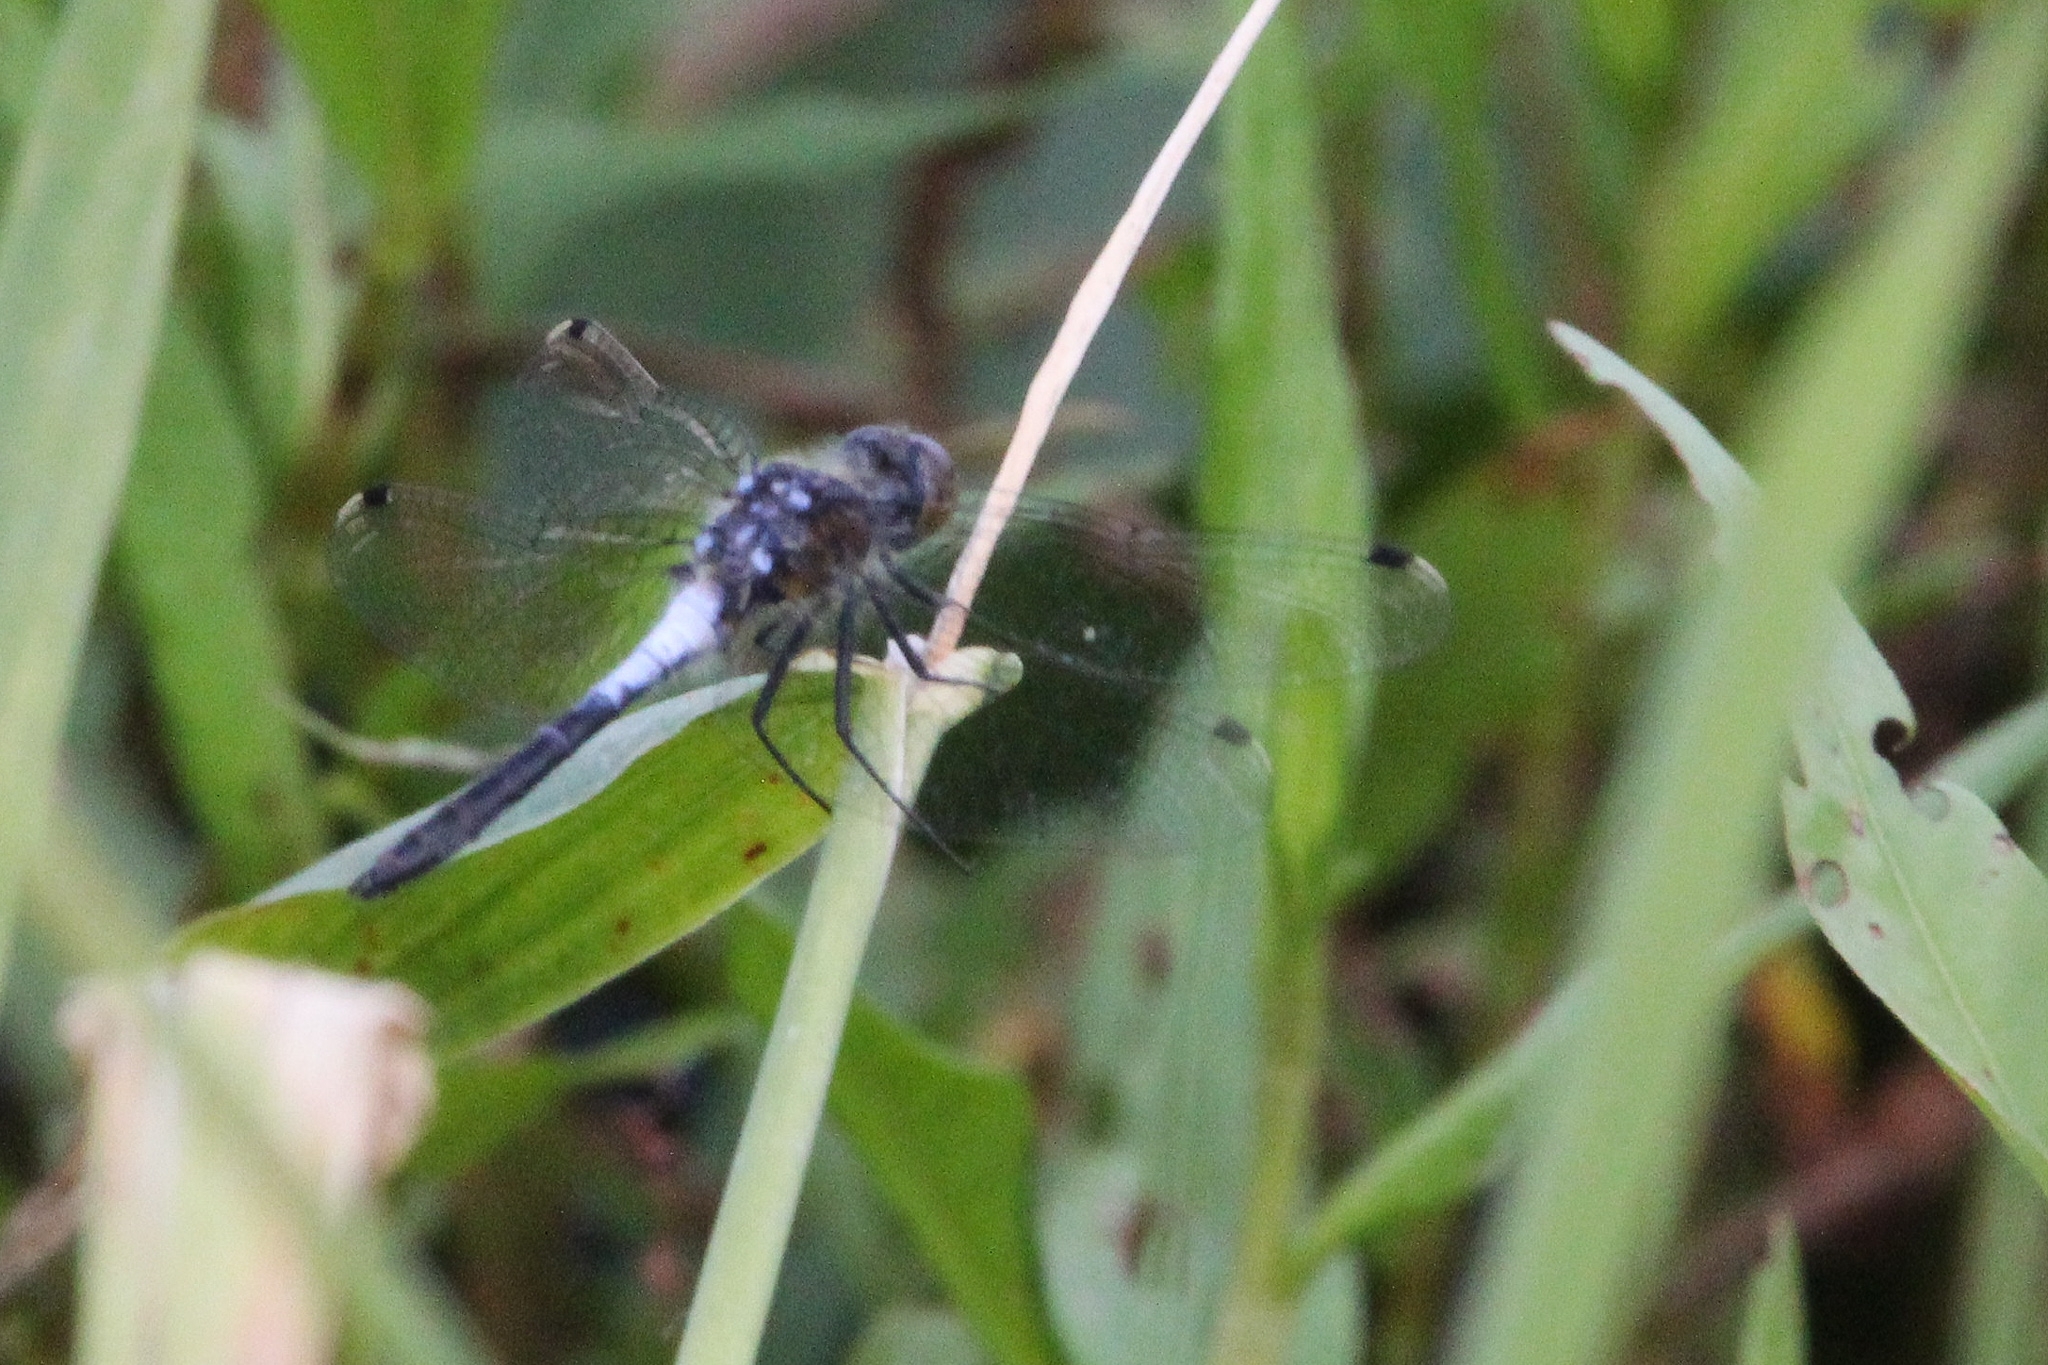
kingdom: Animalia
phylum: Arthropoda
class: Insecta
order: Odonata
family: Libellulidae
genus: Leucorrhinia
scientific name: Leucorrhinia frigida
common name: Frosted whiteface
